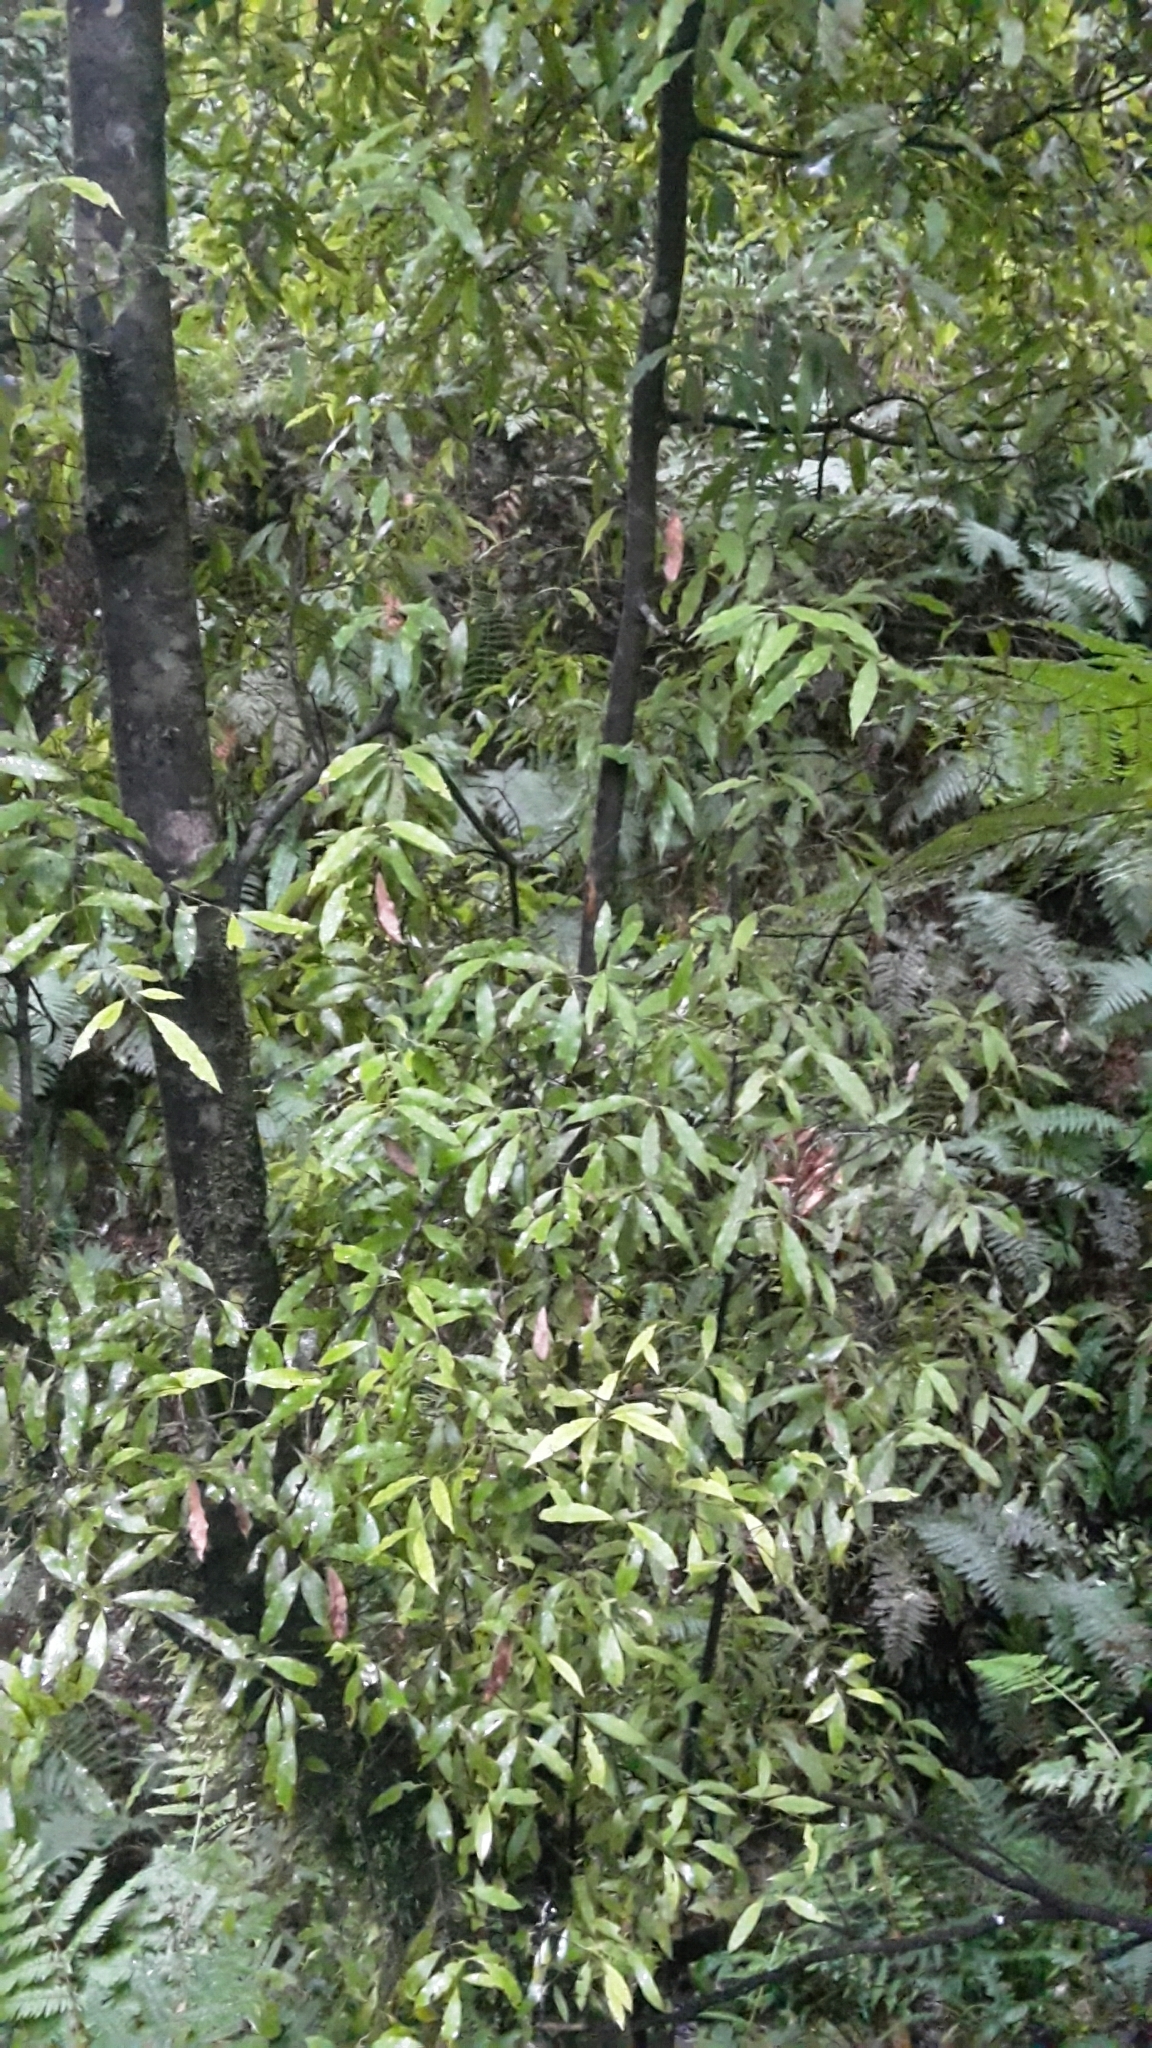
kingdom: Plantae
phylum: Tracheophyta
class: Magnoliopsida
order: Laurales
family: Lauraceae
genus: Beilschmiedia
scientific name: Beilschmiedia tawa
